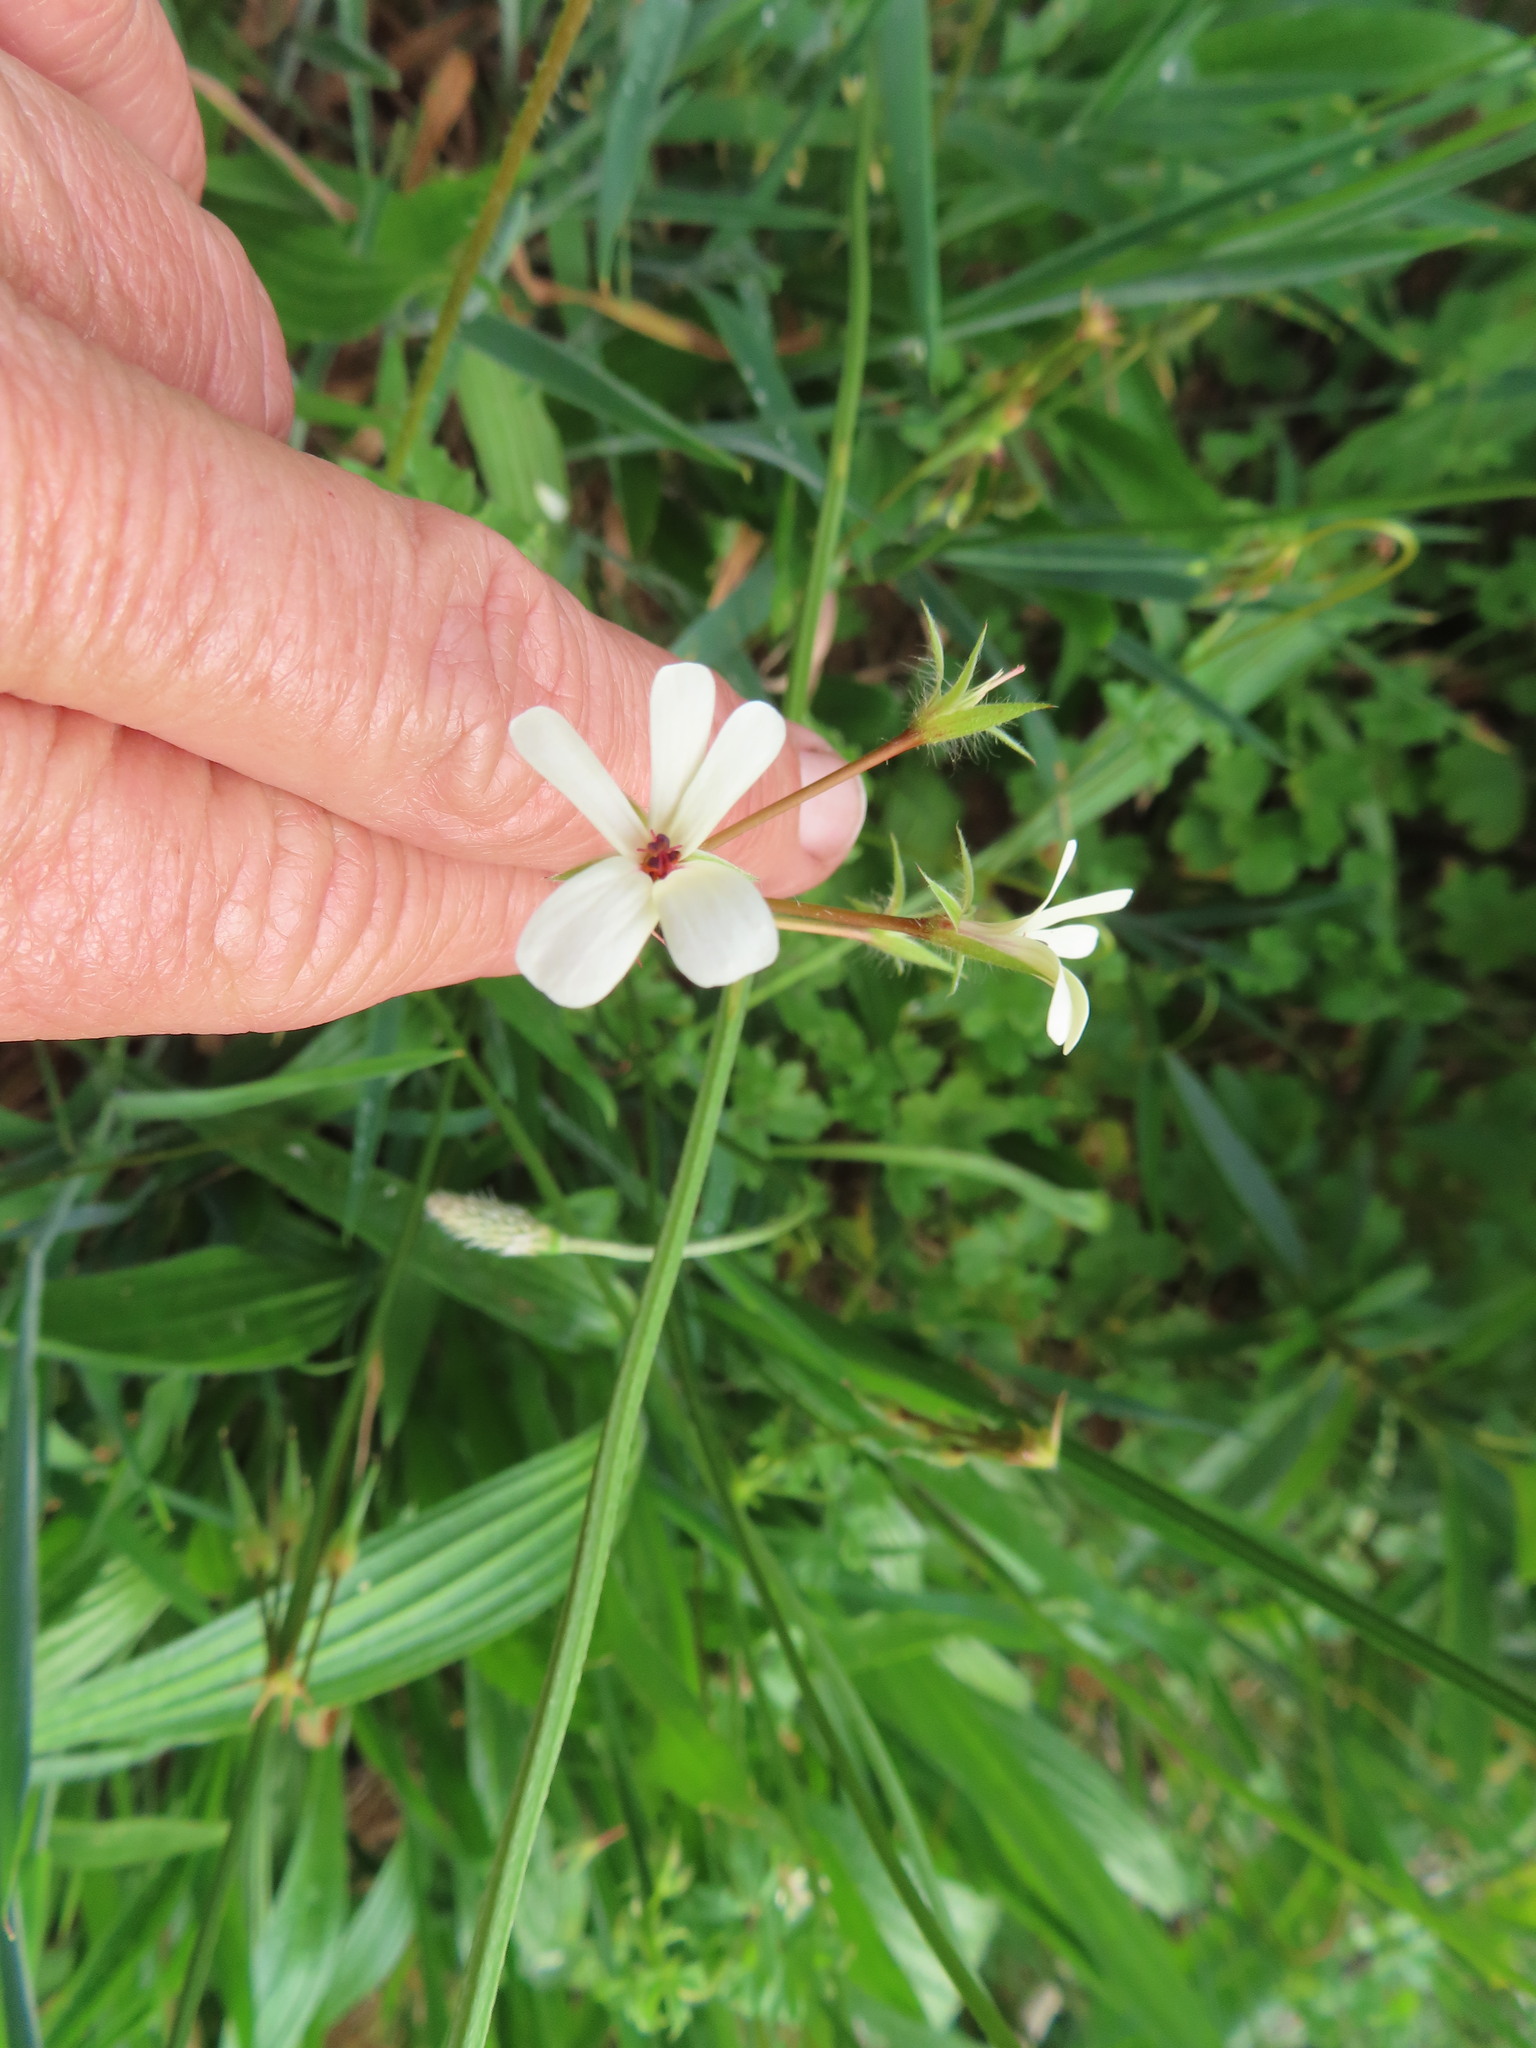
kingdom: Plantae
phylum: Tracheophyta
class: Magnoliopsida
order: Geraniales
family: Geraniaceae
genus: Pelargonium
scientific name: Pelargonium elongatum
